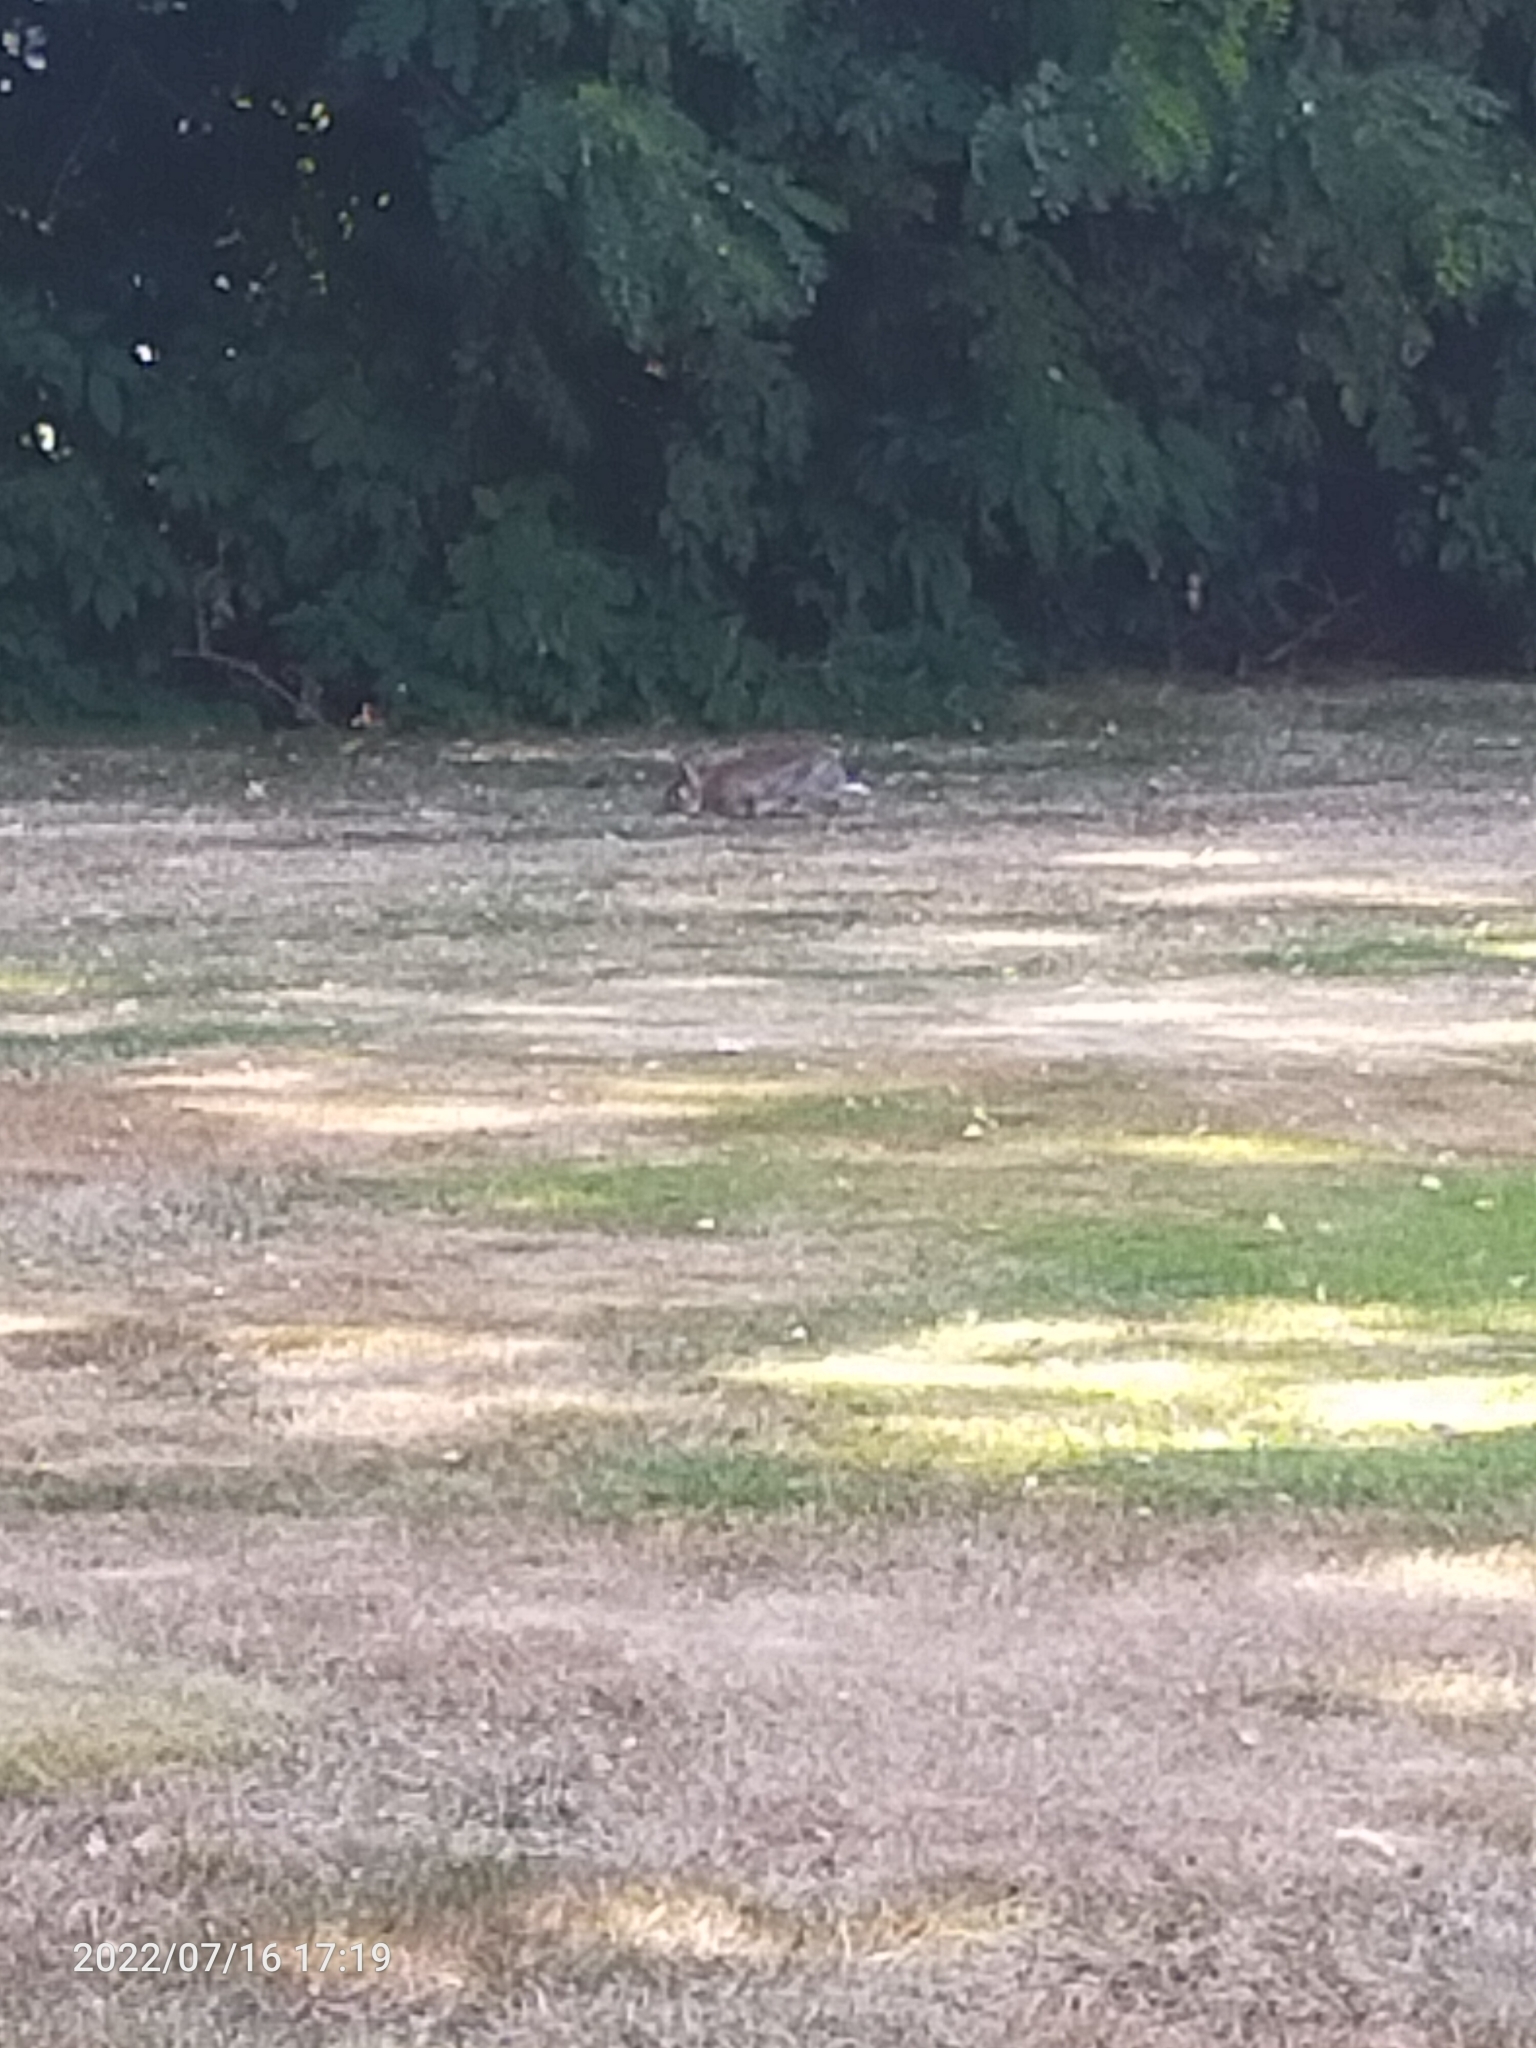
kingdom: Animalia
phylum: Chordata
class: Mammalia
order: Lagomorpha
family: Leporidae
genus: Oryctolagus
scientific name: Oryctolagus cuniculus
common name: European rabbit
